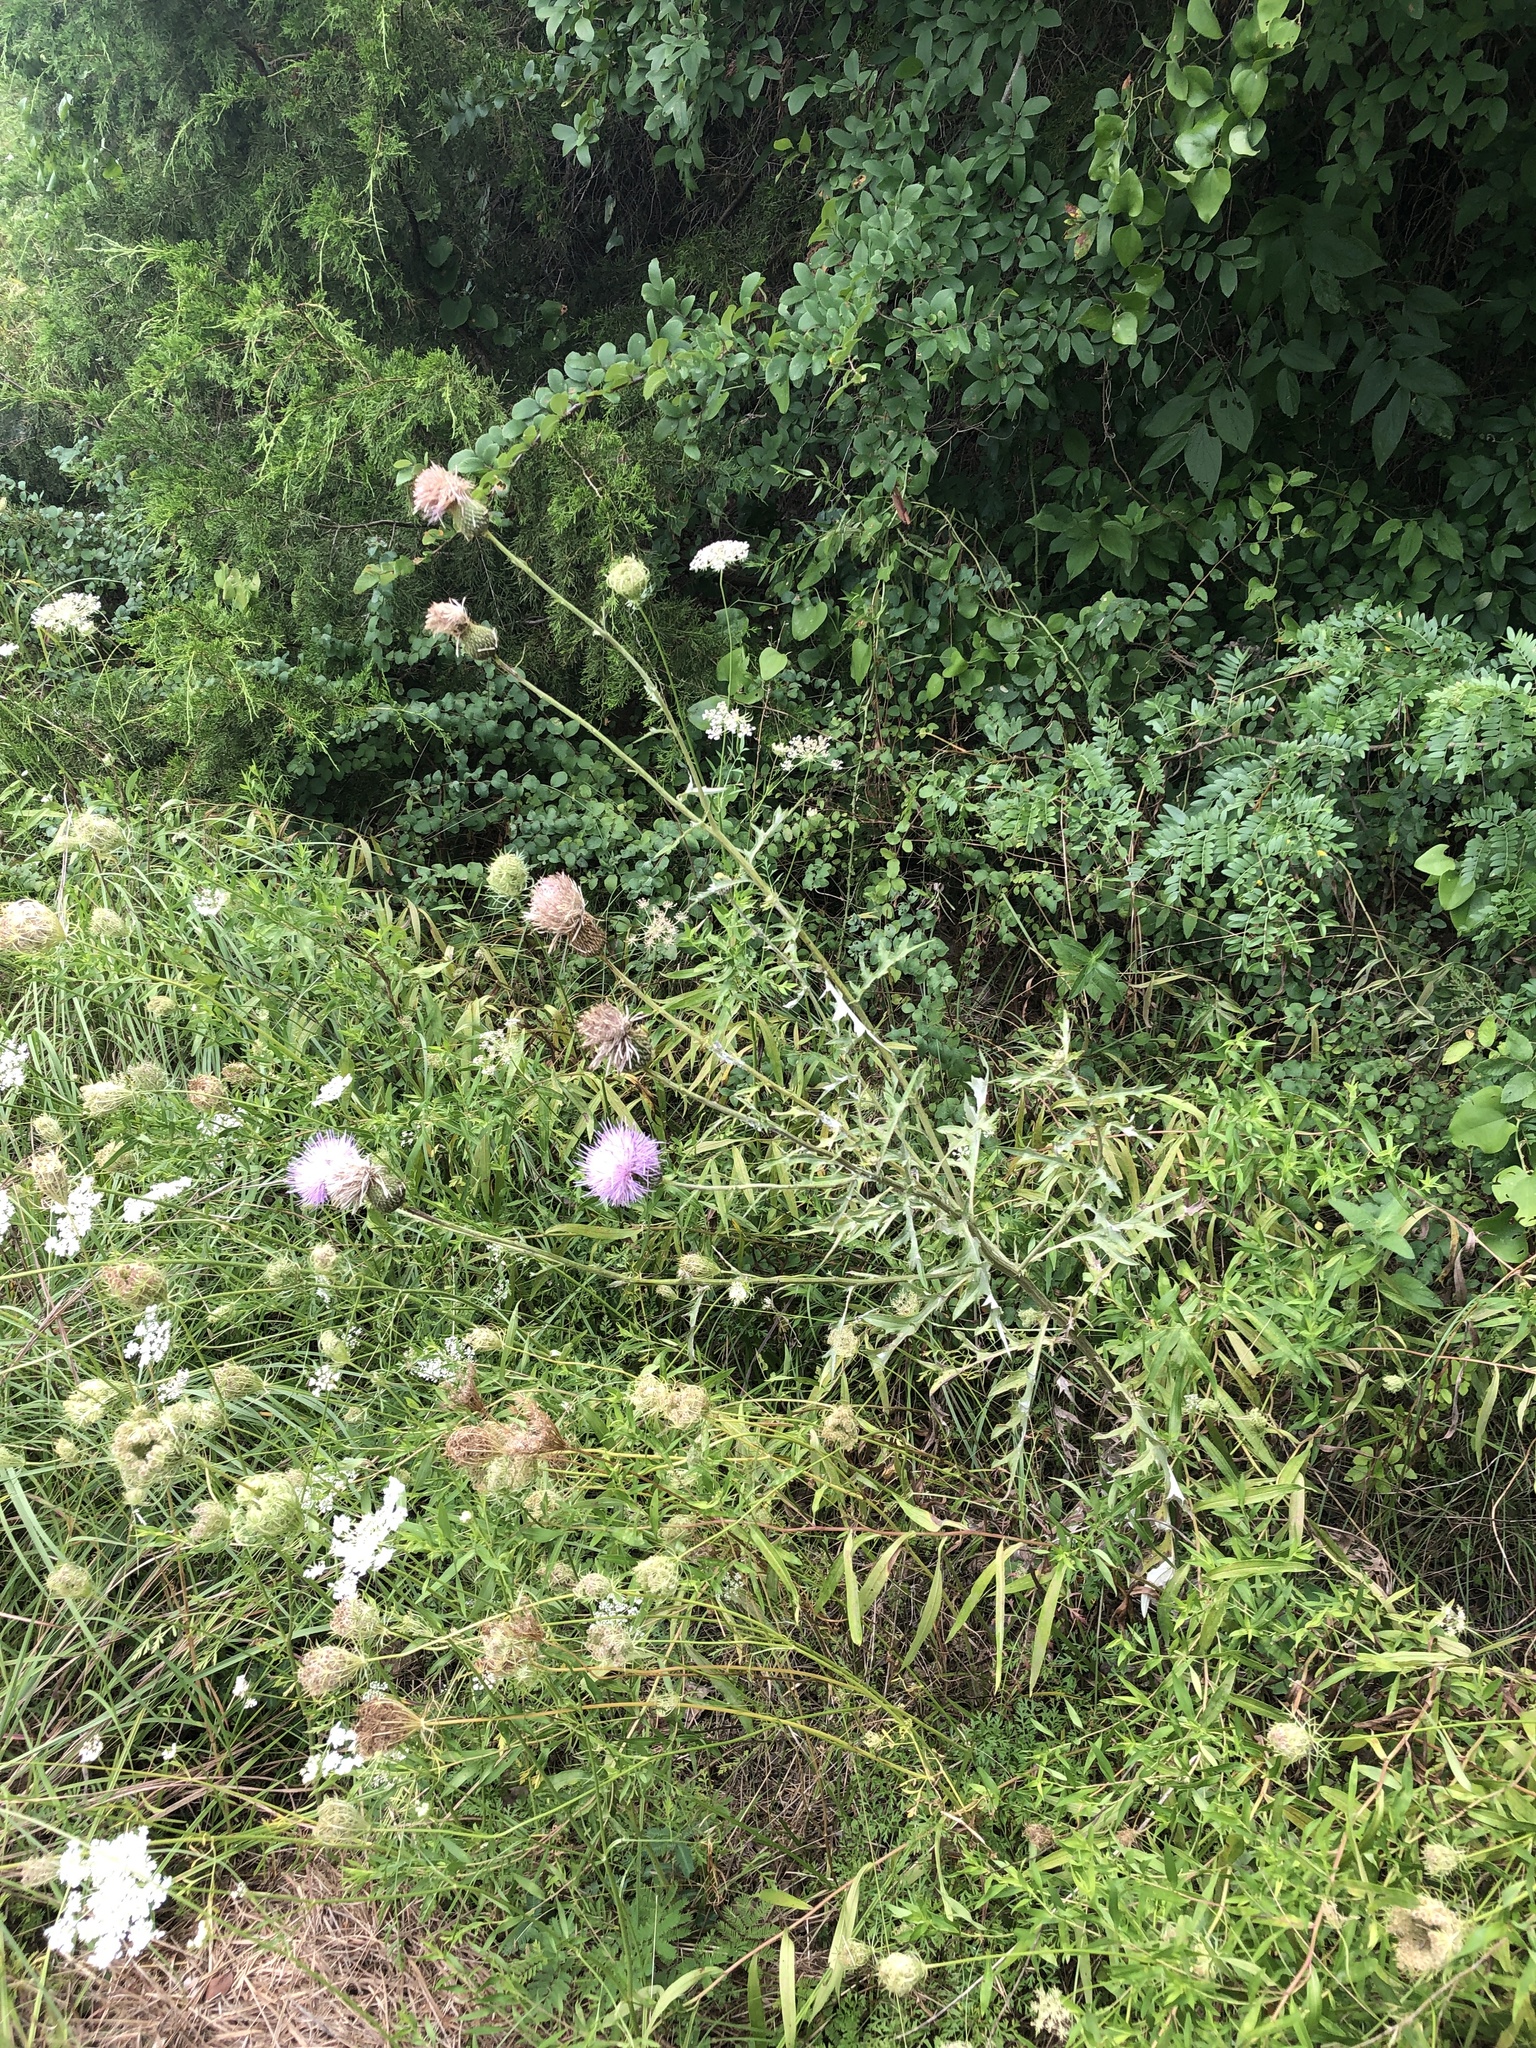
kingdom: Plantae
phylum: Tracheophyta
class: Magnoliopsida
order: Asterales
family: Asteraceae
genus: Cirsium
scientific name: Cirsium engelmannii
